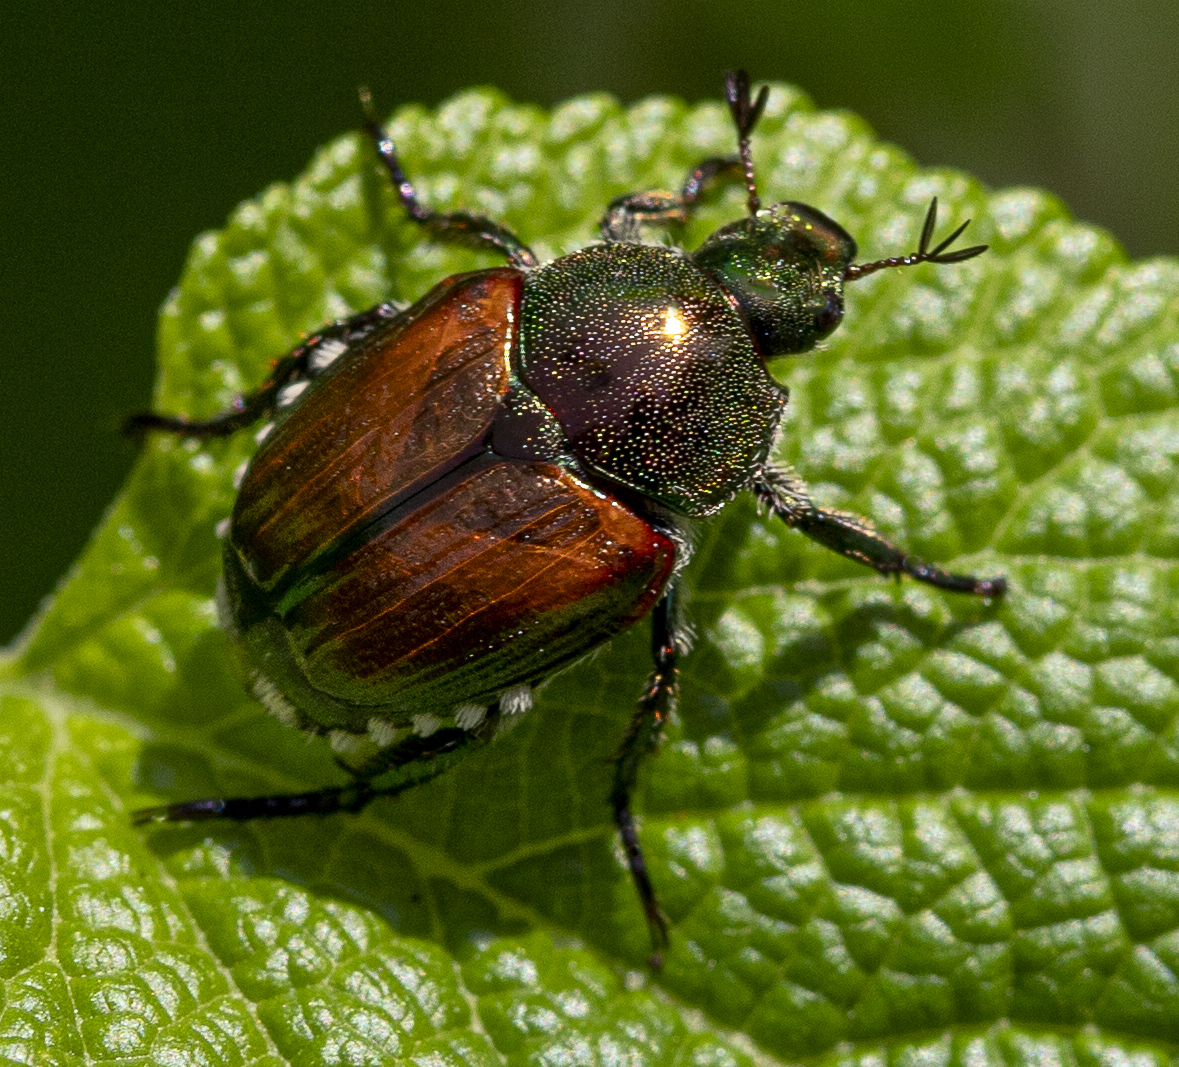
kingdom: Animalia
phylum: Arthropoda
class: Insecta
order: Coleoptera
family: Scarabaeidae
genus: Popillia
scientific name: Popillia japonica
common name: Japanese beetle
